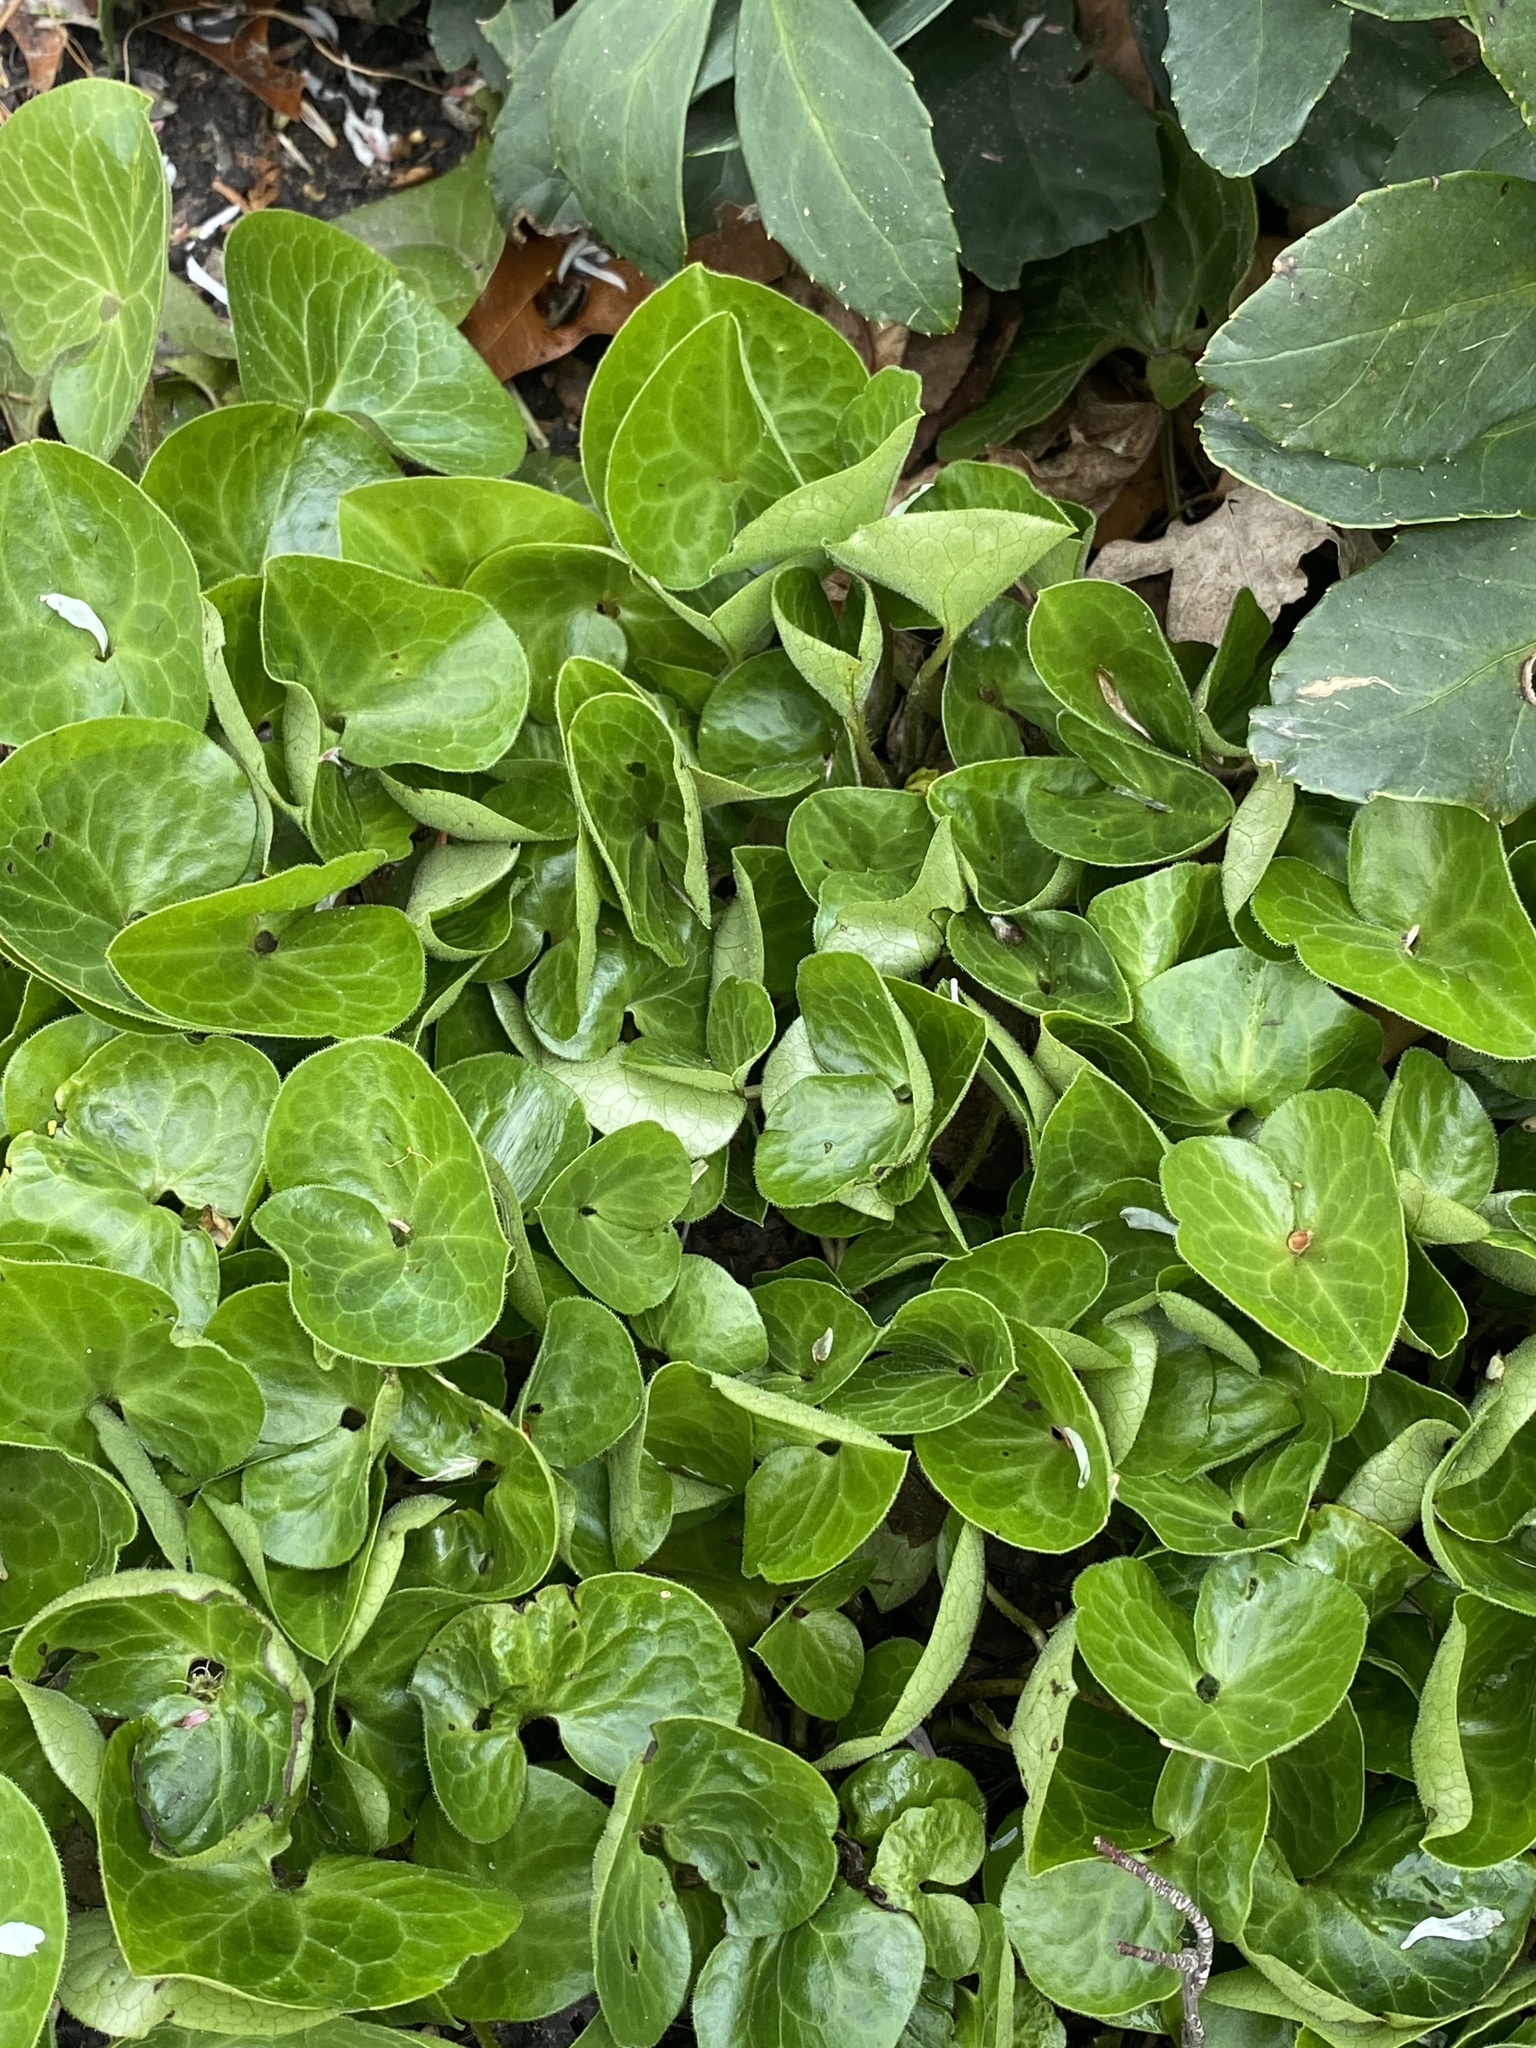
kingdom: Plantae
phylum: Tracheophyta
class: Magnoliopsida
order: Piperales
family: Aristolochiaceae
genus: Asarum
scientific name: Asarum europaeum
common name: Asarabacca
